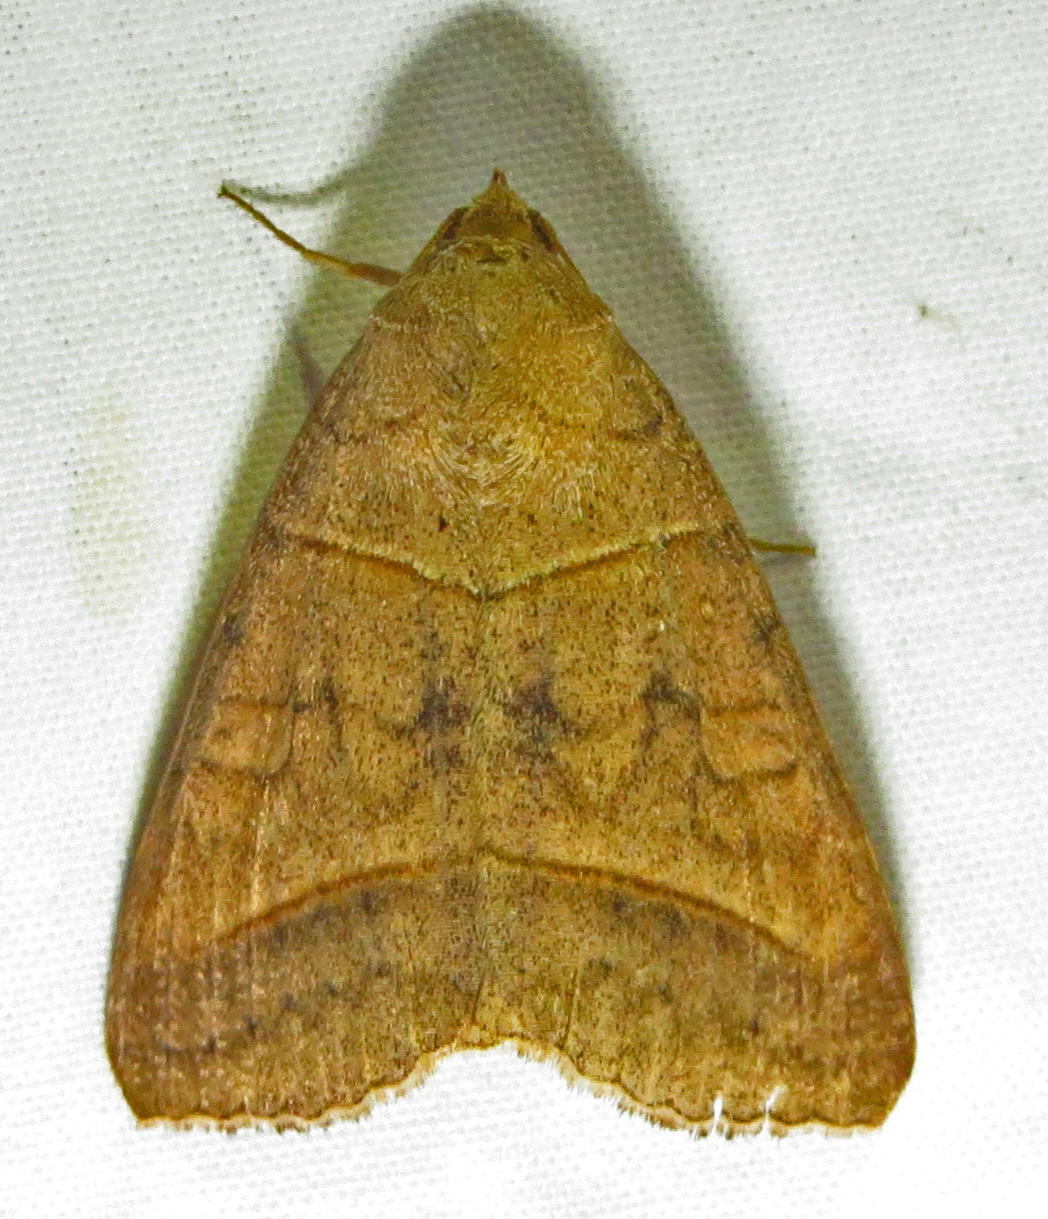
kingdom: Animalia
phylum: Arthropoda
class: Insecta
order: Lepidoptera
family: Erebidae
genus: Mocis
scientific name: Mocis texana
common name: Texas mocis moth
